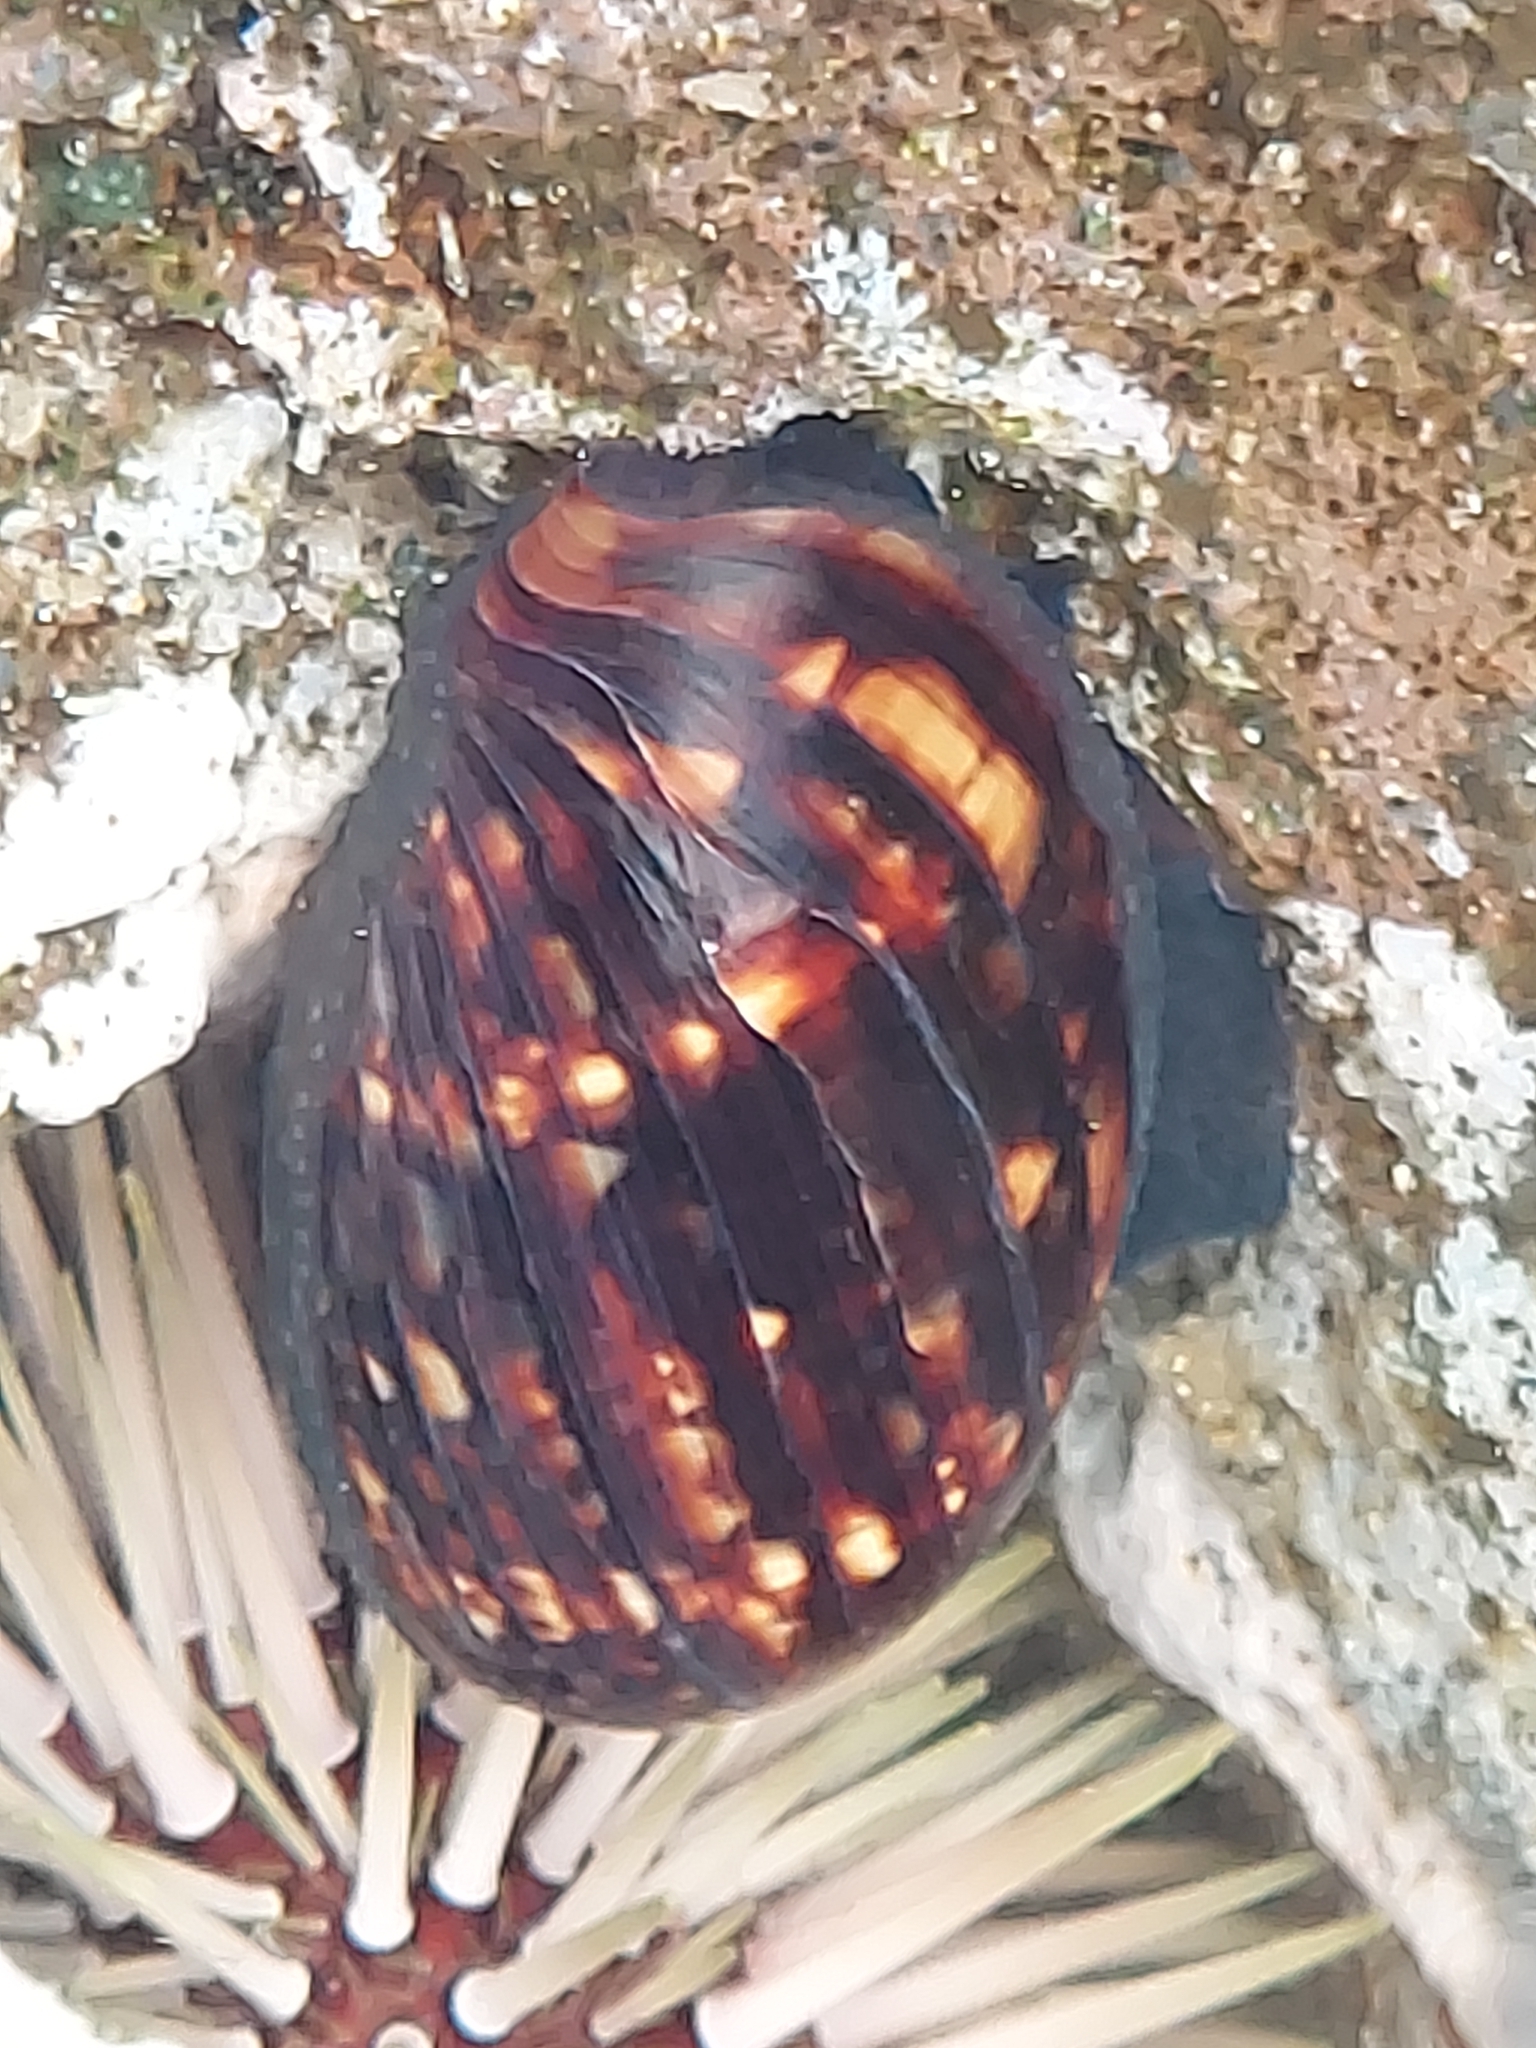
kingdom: Animalia
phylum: Mollusca
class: Gastropoda
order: Littorinimorpha
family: Cypraeidae
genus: Mauritia
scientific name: Mauritia mauritiana
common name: Hump-backed cowrie
